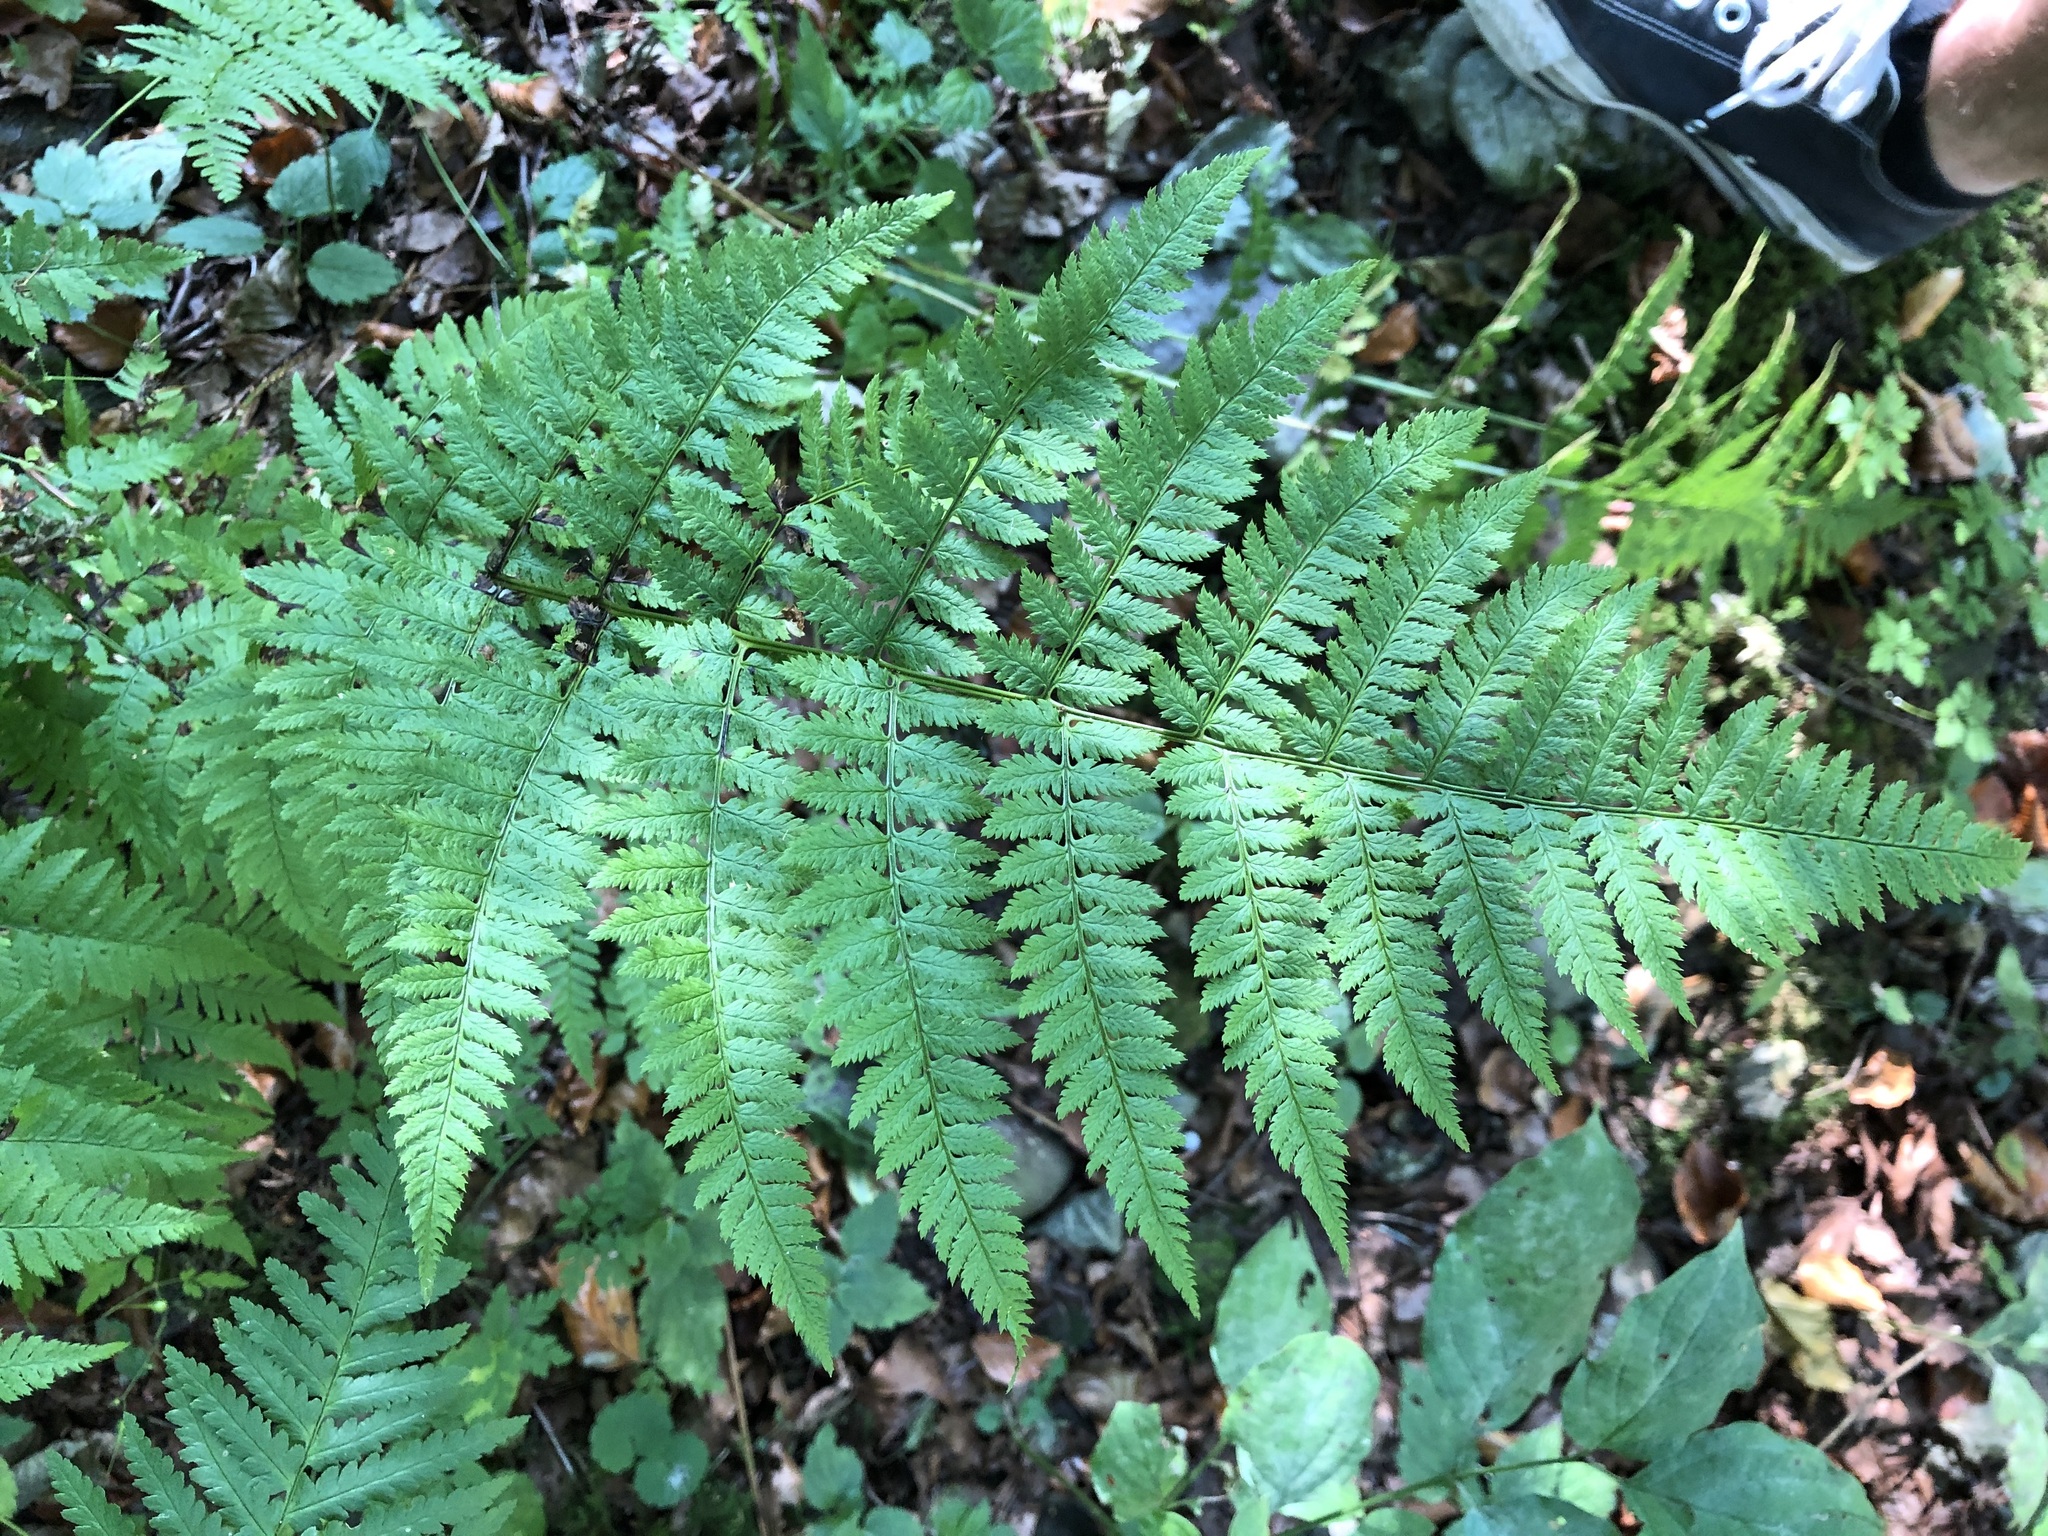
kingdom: Plantae
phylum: Tracheophyta
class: Polypodiopsida
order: Polypodiales
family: Dryopteridaceae
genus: Dryopteris
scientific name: Dryopteris carthusiana
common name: Narrow buckler-fern
